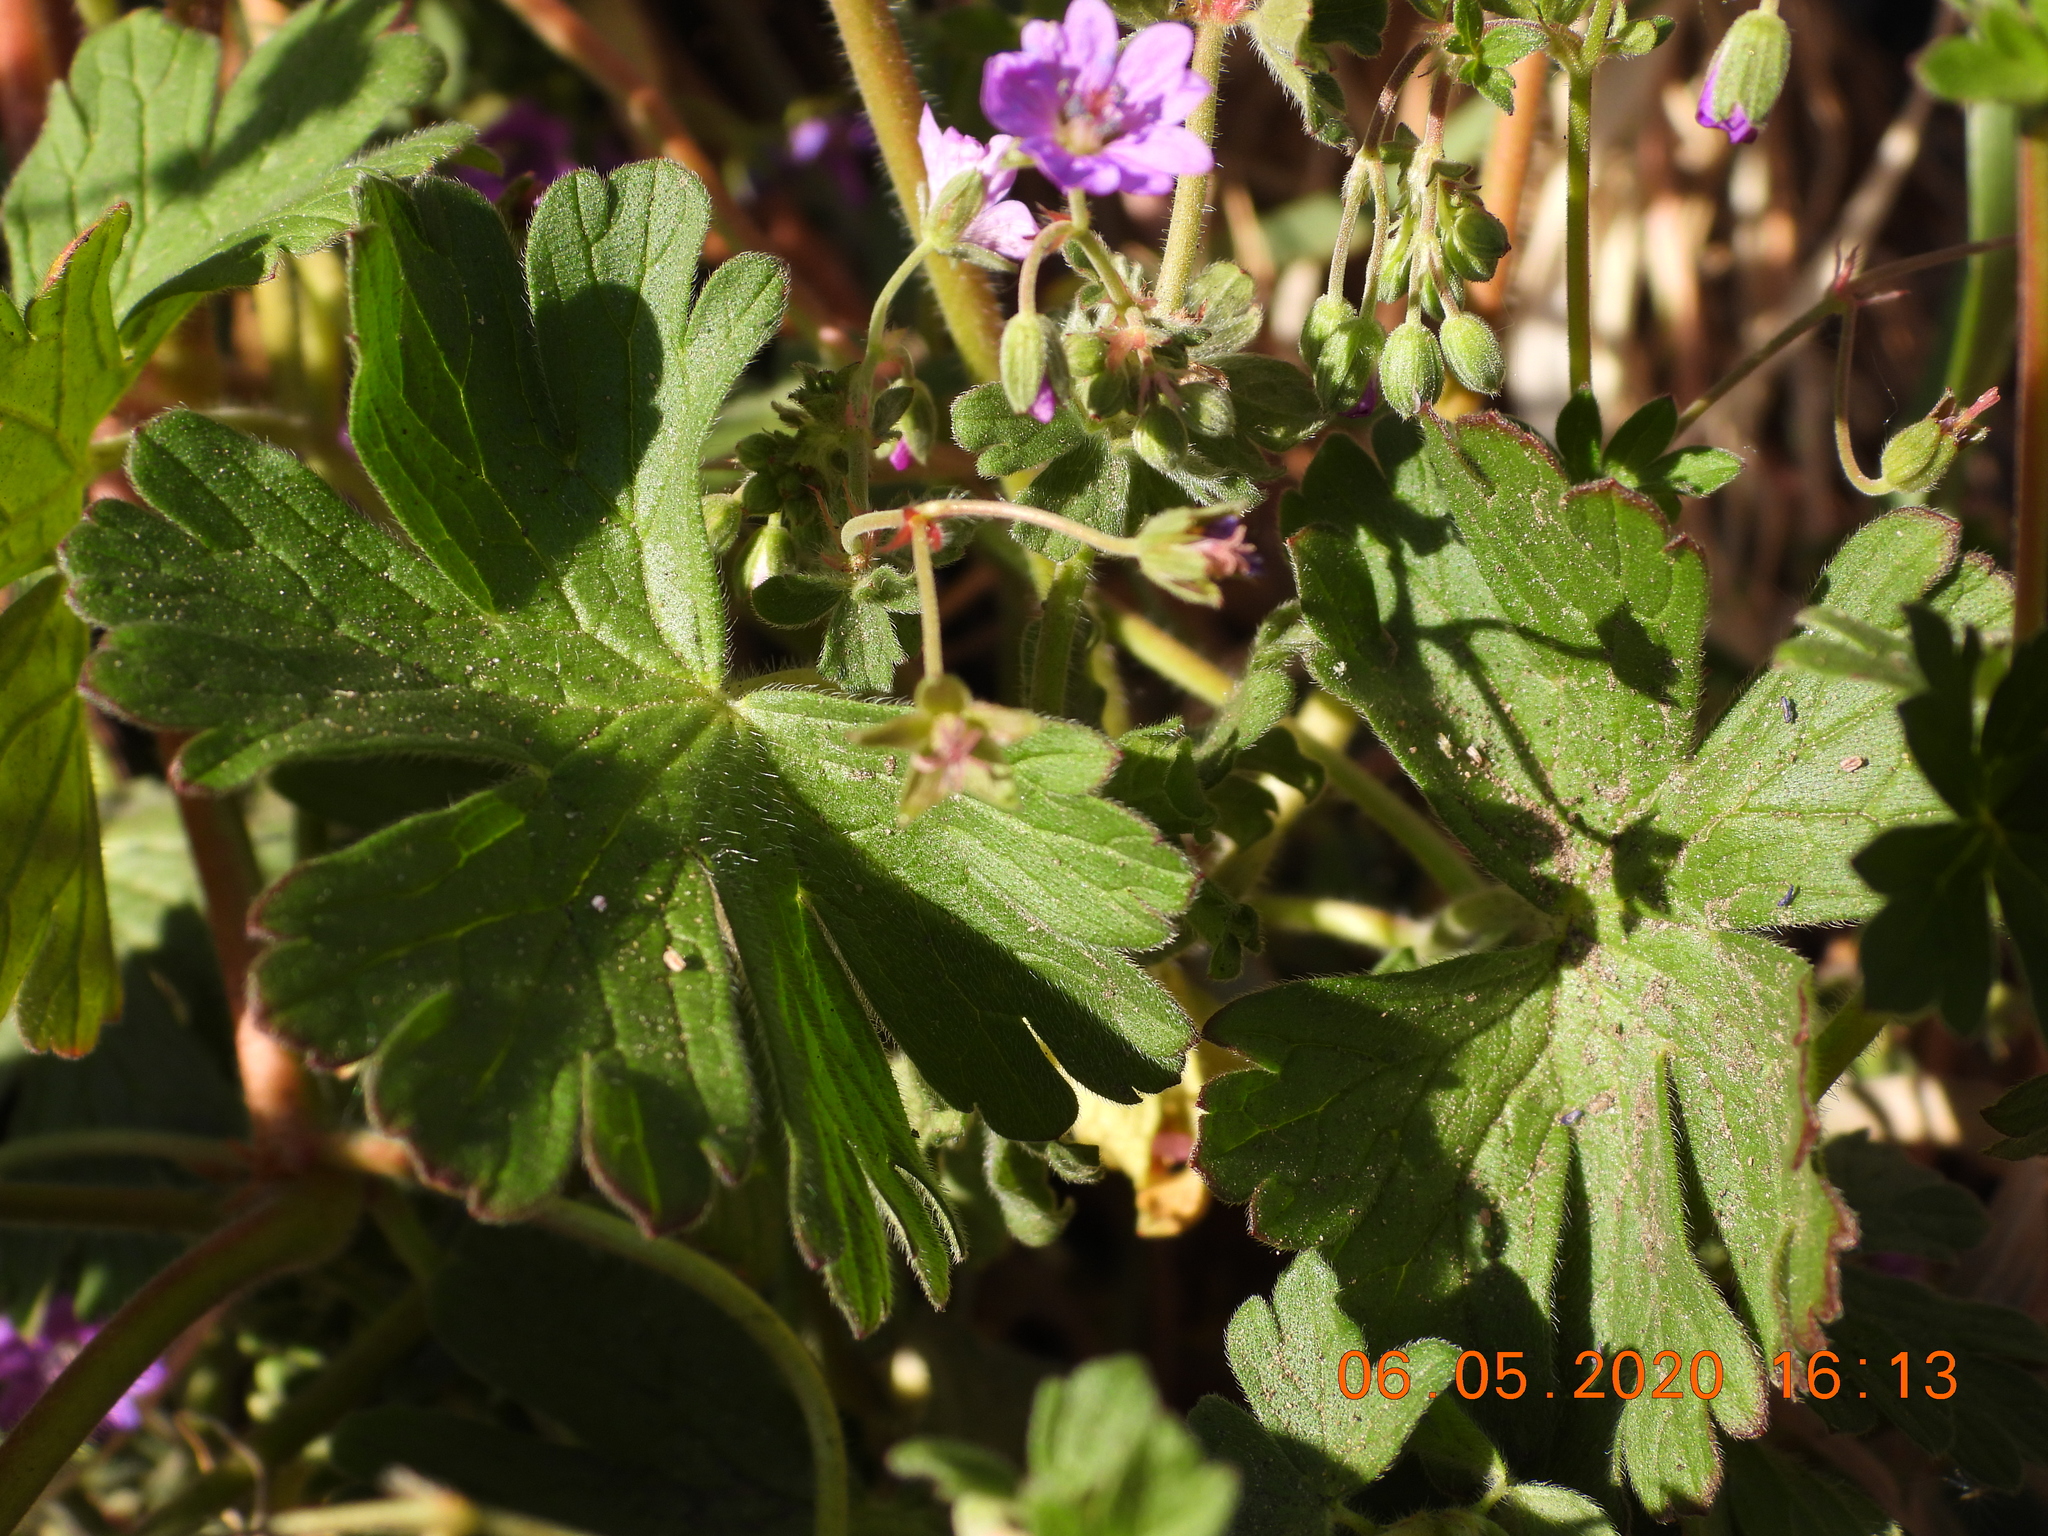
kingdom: Plantae
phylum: Tracheophyta
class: Magnoliopsida
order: Geraniales
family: Geraniaceae
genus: Geranium
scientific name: Geranium pyrenaicum
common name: Hedgerow crane's-bill
